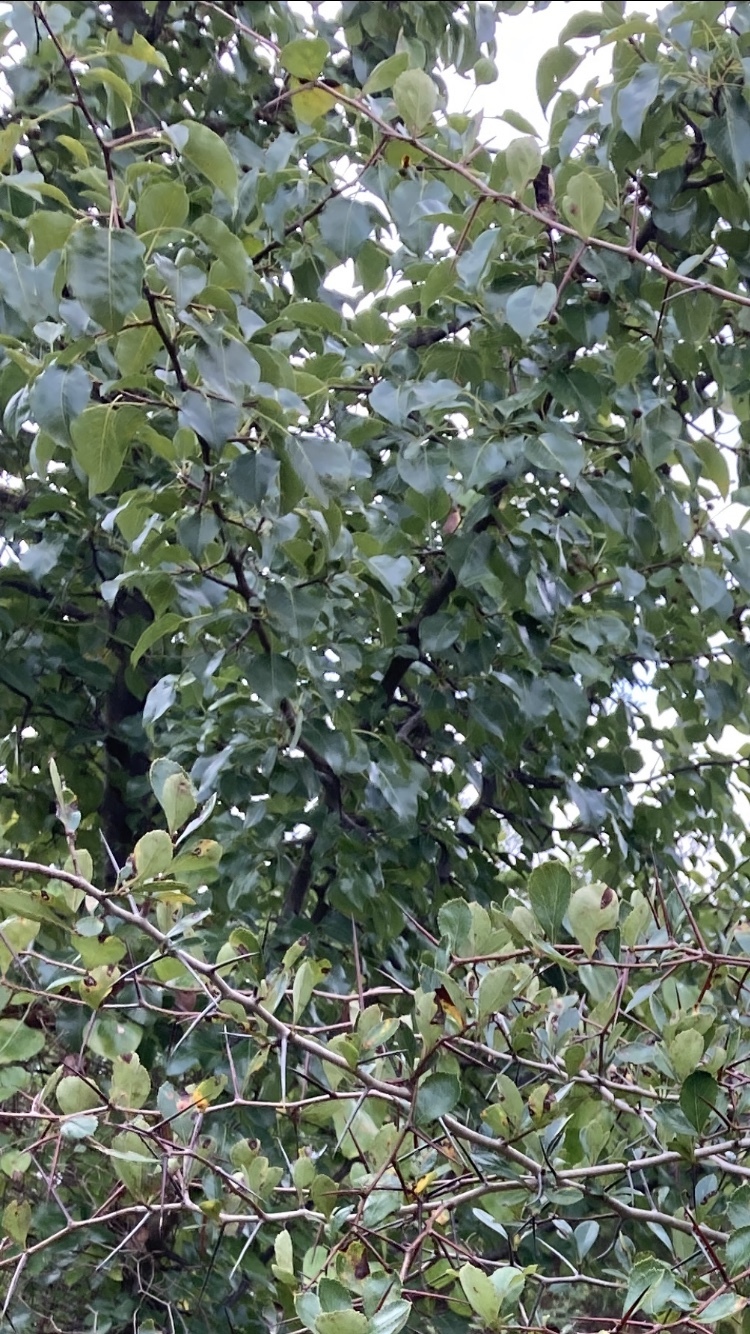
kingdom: Plantae
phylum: Tracheophyta
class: Magnoliopsida
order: Rosales
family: Rosaceae
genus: Pyrus
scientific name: Pyrus calleryana
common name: Callery pear
